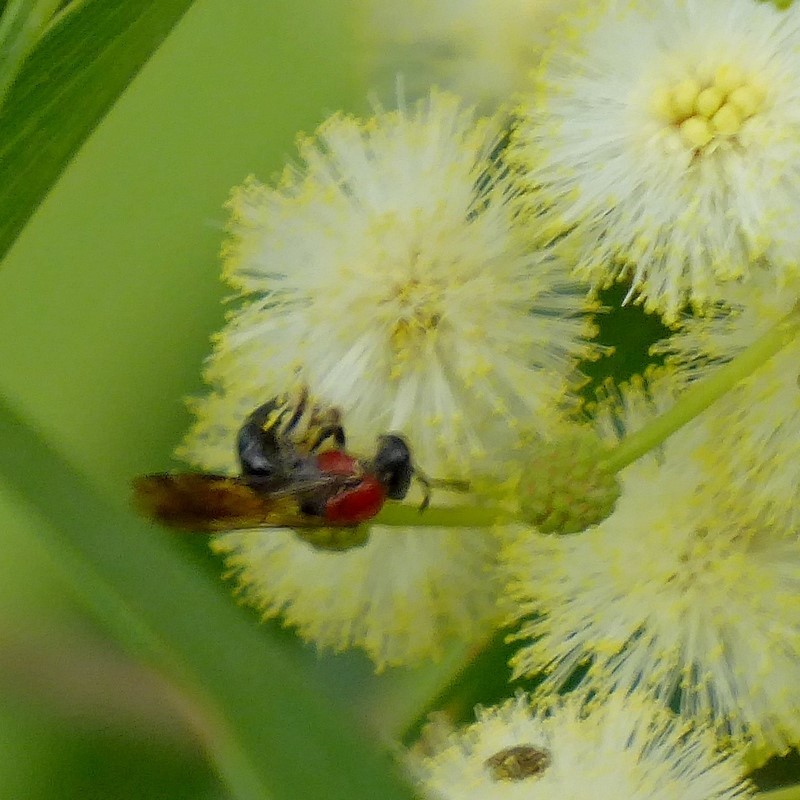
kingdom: Animalia
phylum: Arthropoda
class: Insecta
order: Hymenoptera
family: Halictidae
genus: Lasioglossum
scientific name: Lasioglossum callomelittinum
